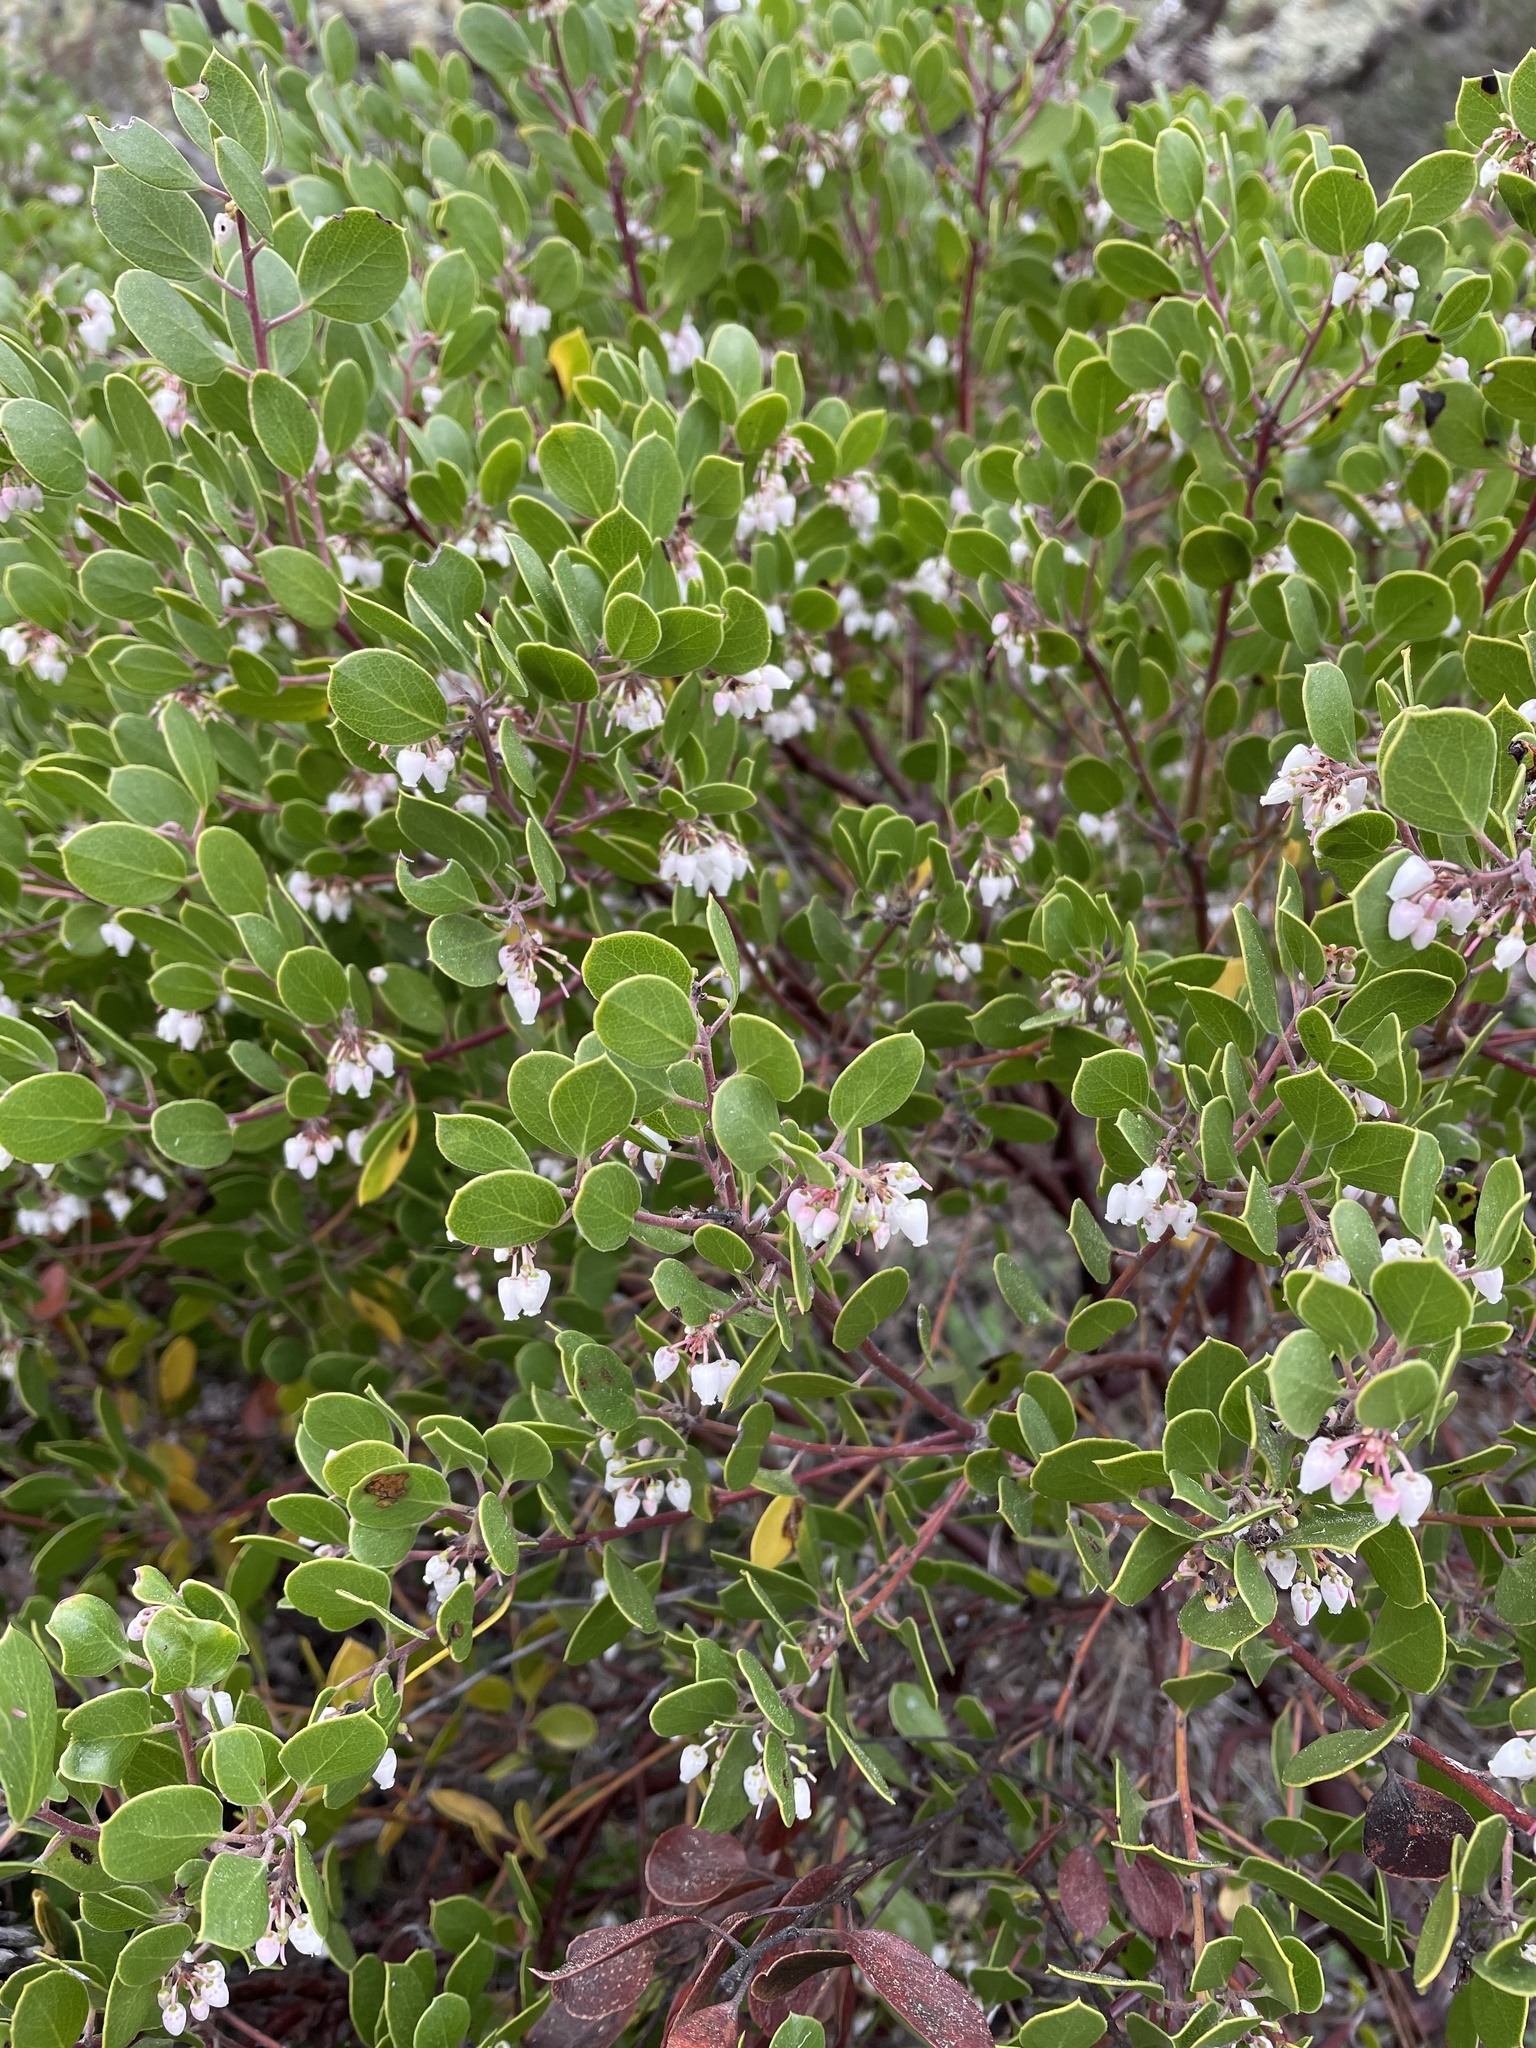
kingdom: Plantae
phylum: Tracheophyta
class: Magnoliopsida
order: Ericales
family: Ericaceae
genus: Arctostaphylos
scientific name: Arctostaphylos hookeri
